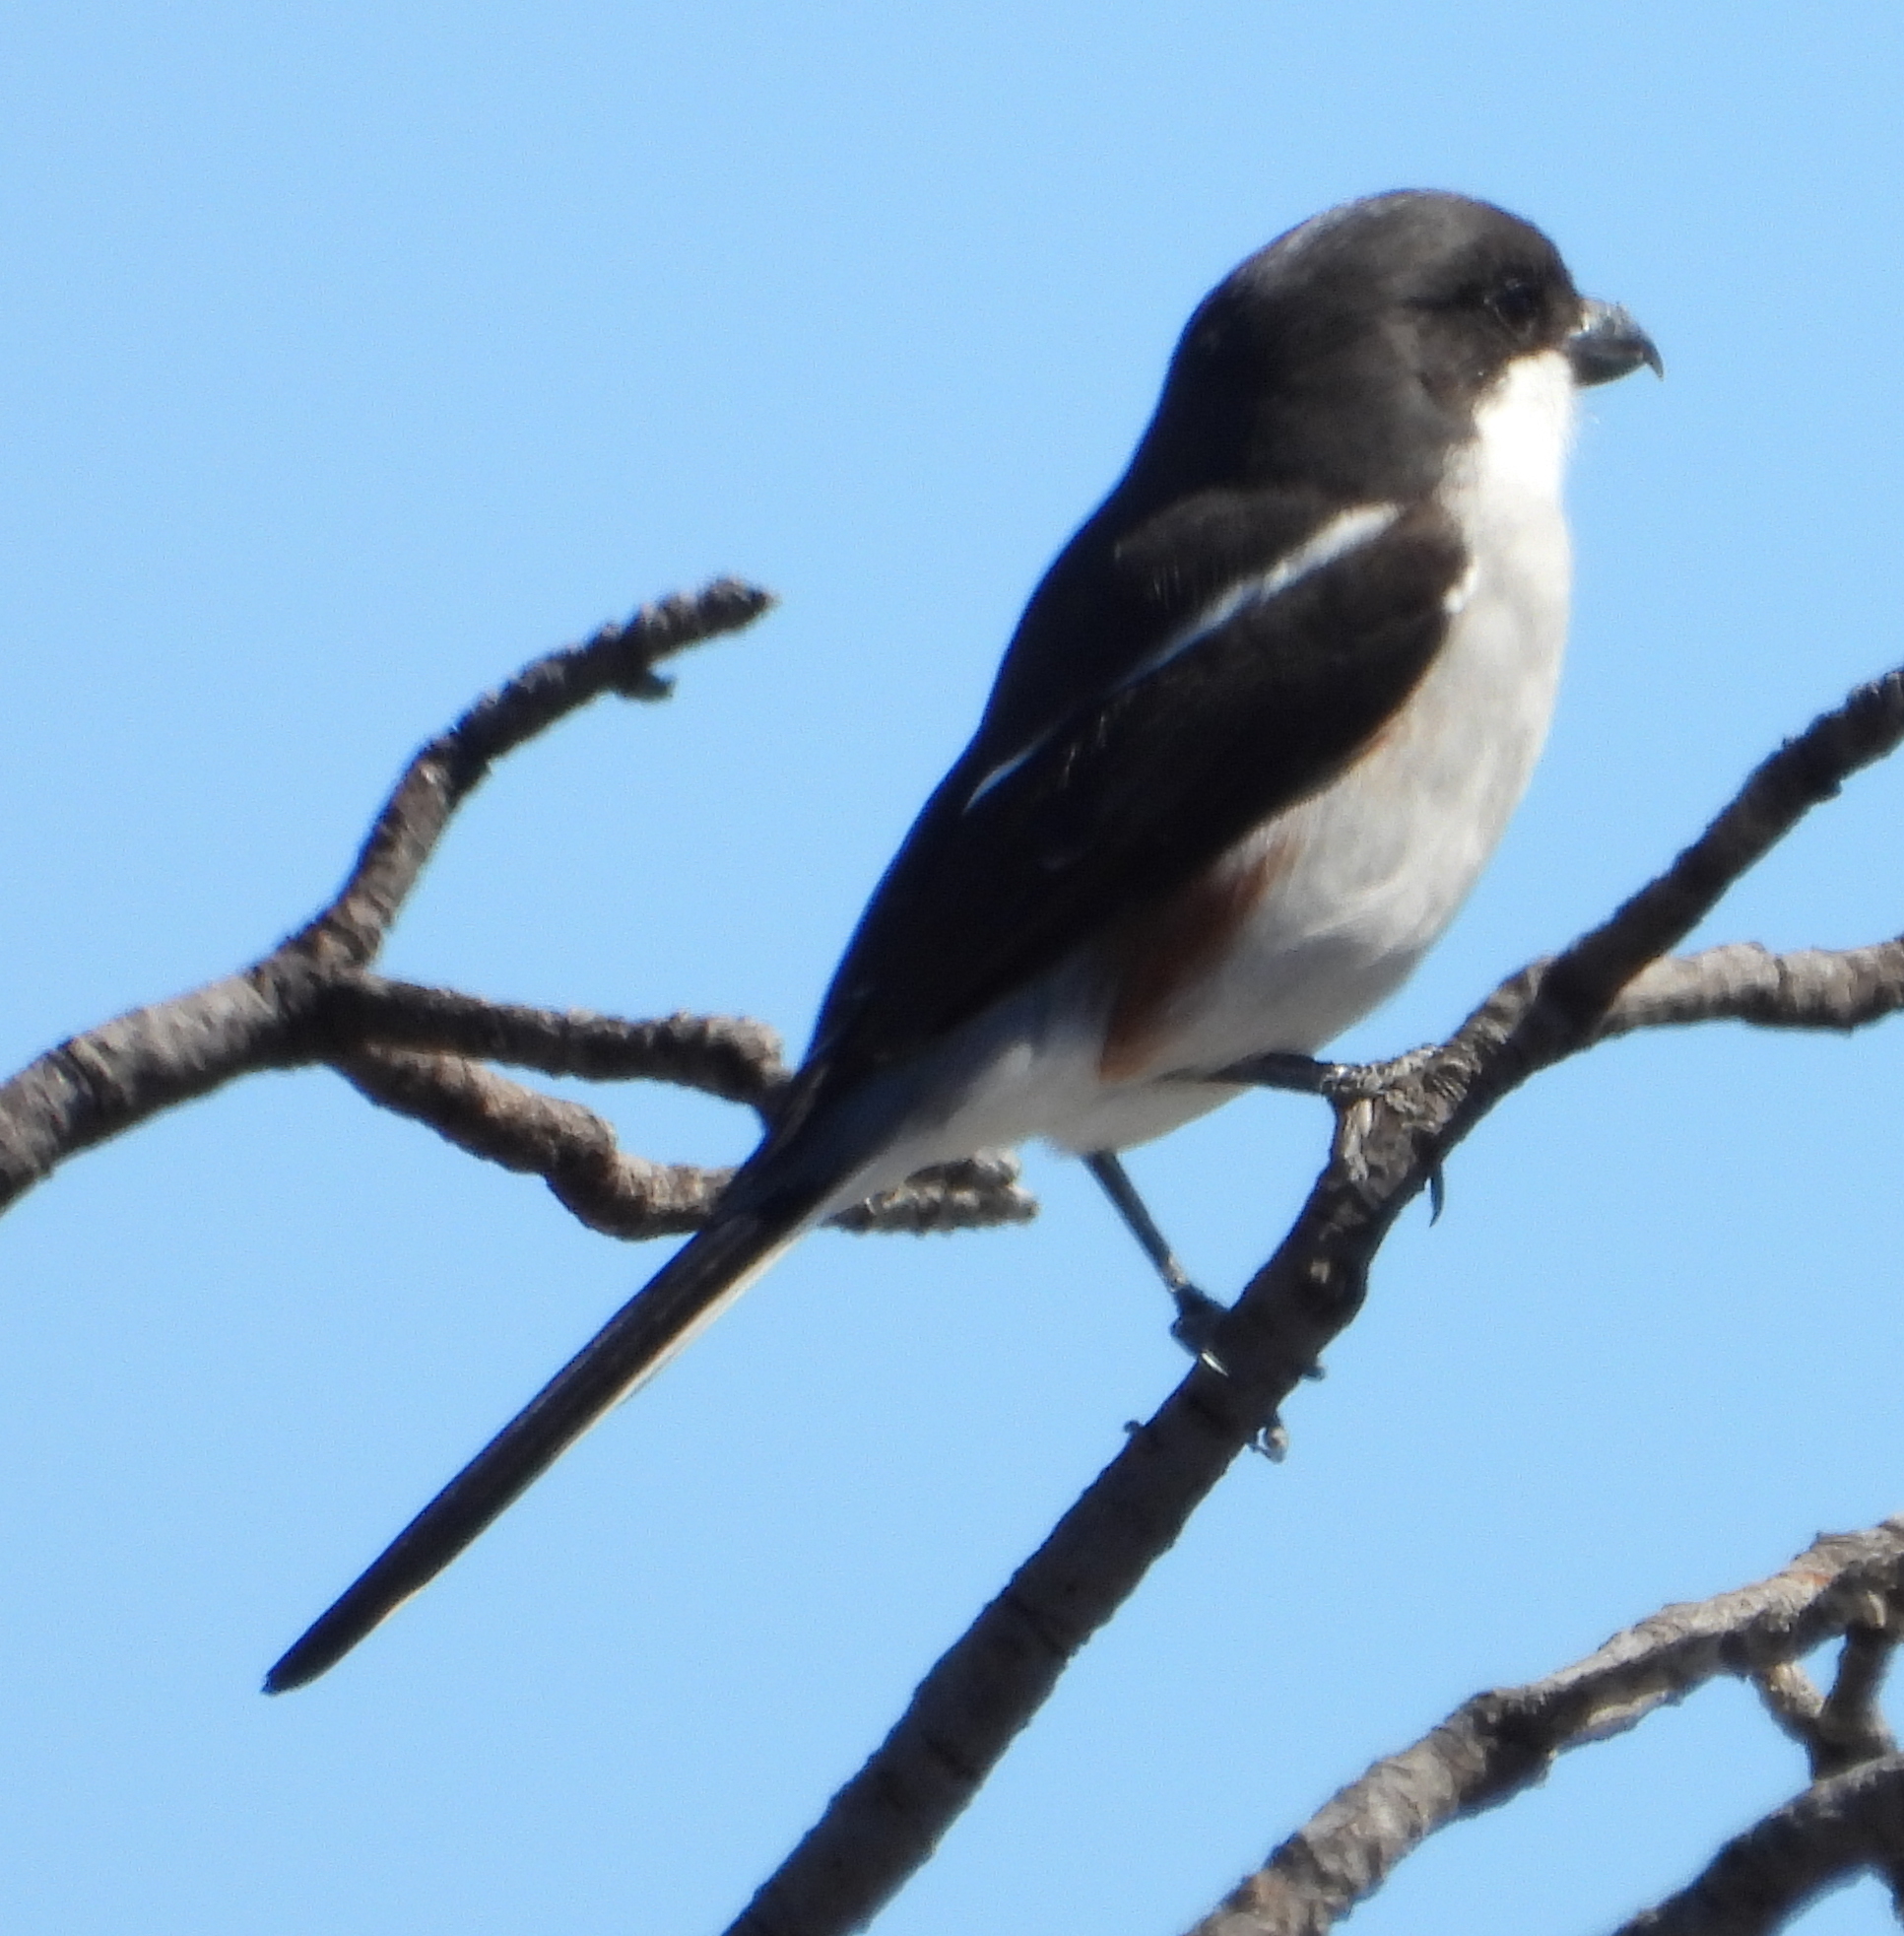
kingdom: Animalia
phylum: Chordata
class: Aves
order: Passeriformes
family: Laniidae
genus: Lanius
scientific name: Lanius collaris
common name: Southern fiscal
